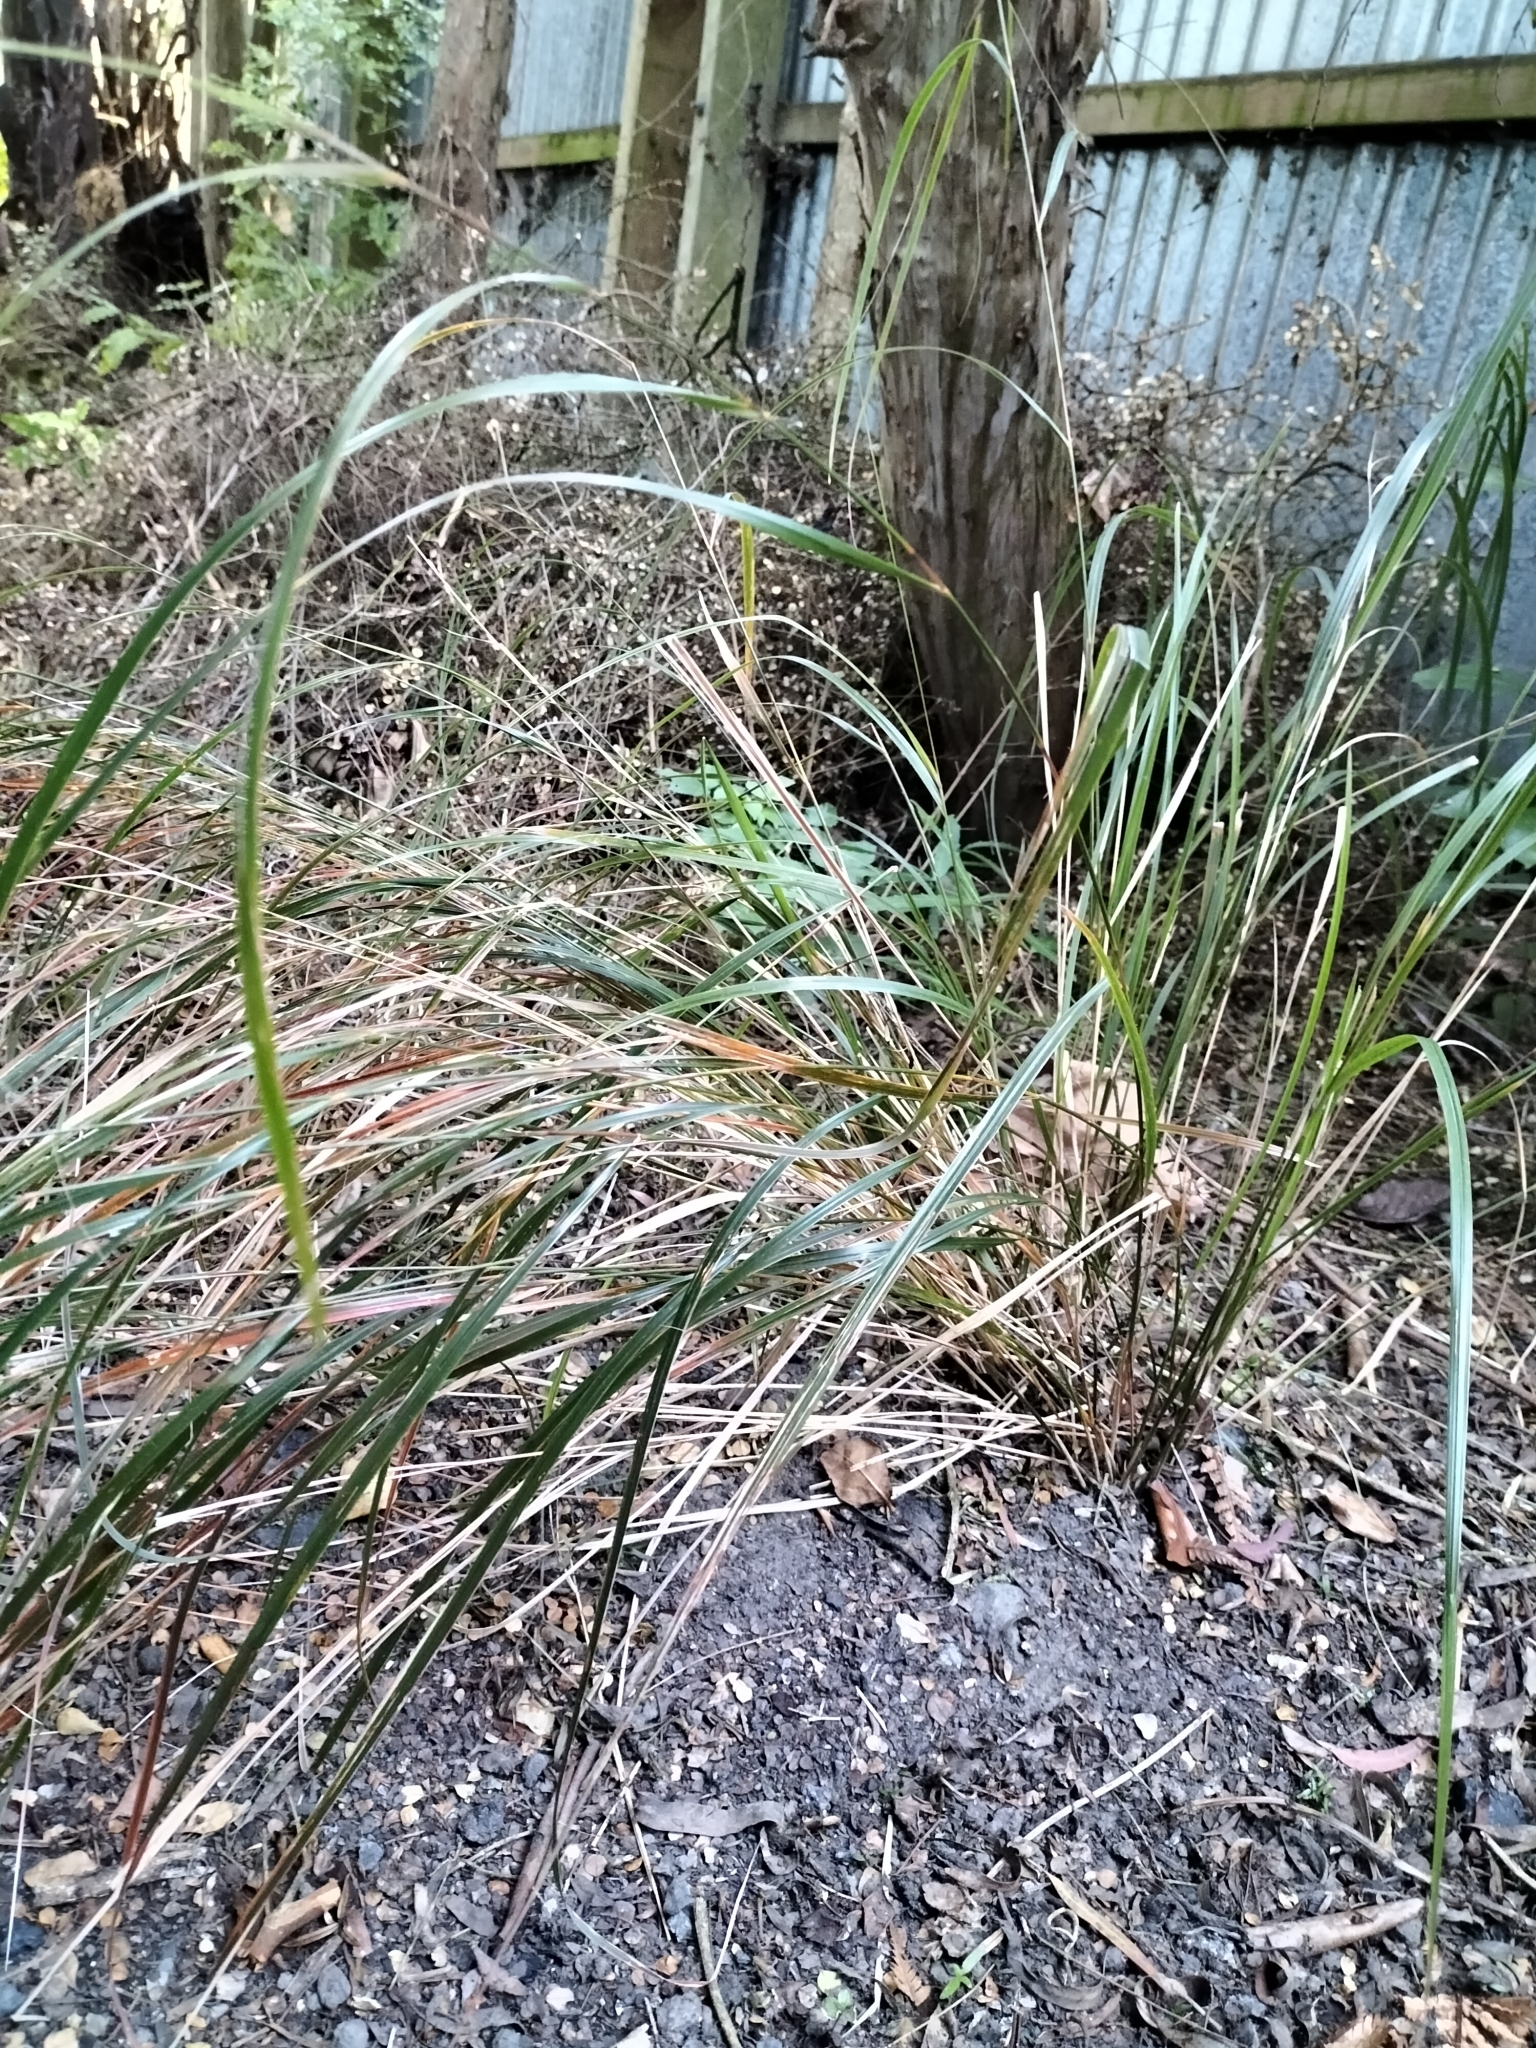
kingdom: Plantae
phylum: Tracheophyta
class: Liliopsida
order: Poales
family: Poaceae
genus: Anemanthele
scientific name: Anemanthele lessoniana
